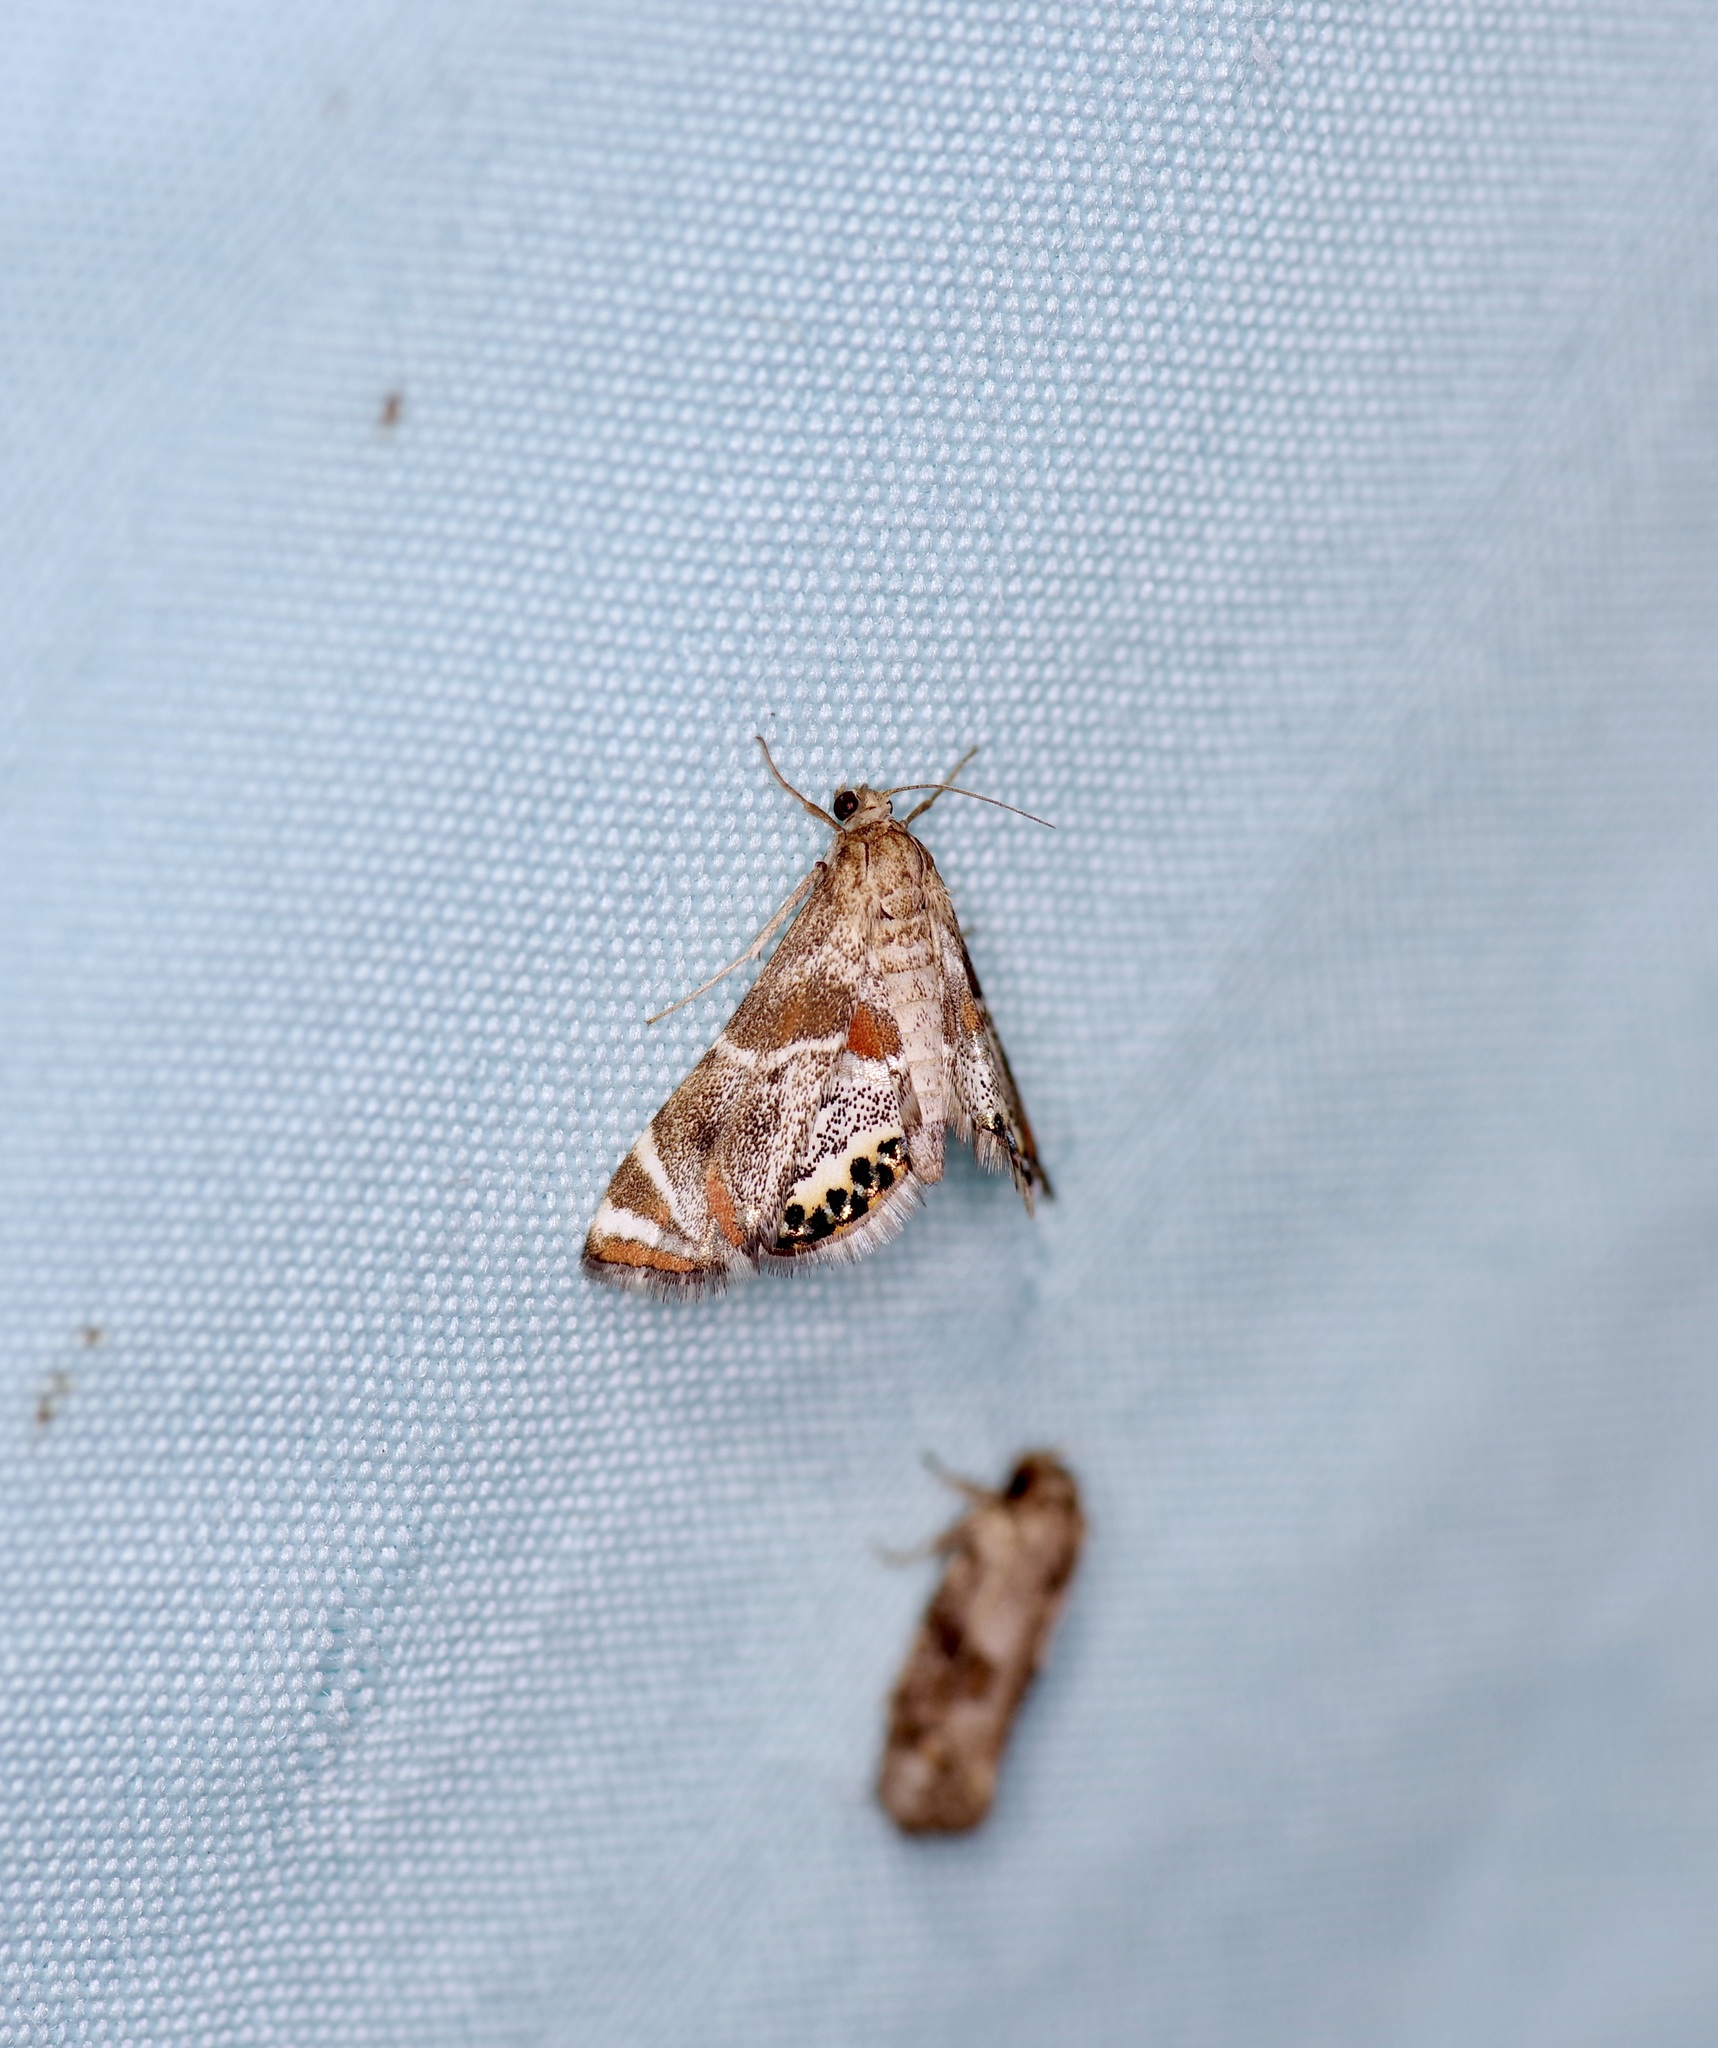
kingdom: Animalia
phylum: Arthropoda
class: Insecta
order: Lepidoptera
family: Crambidae
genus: Petrophila
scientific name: Petrophila jaliscalis
